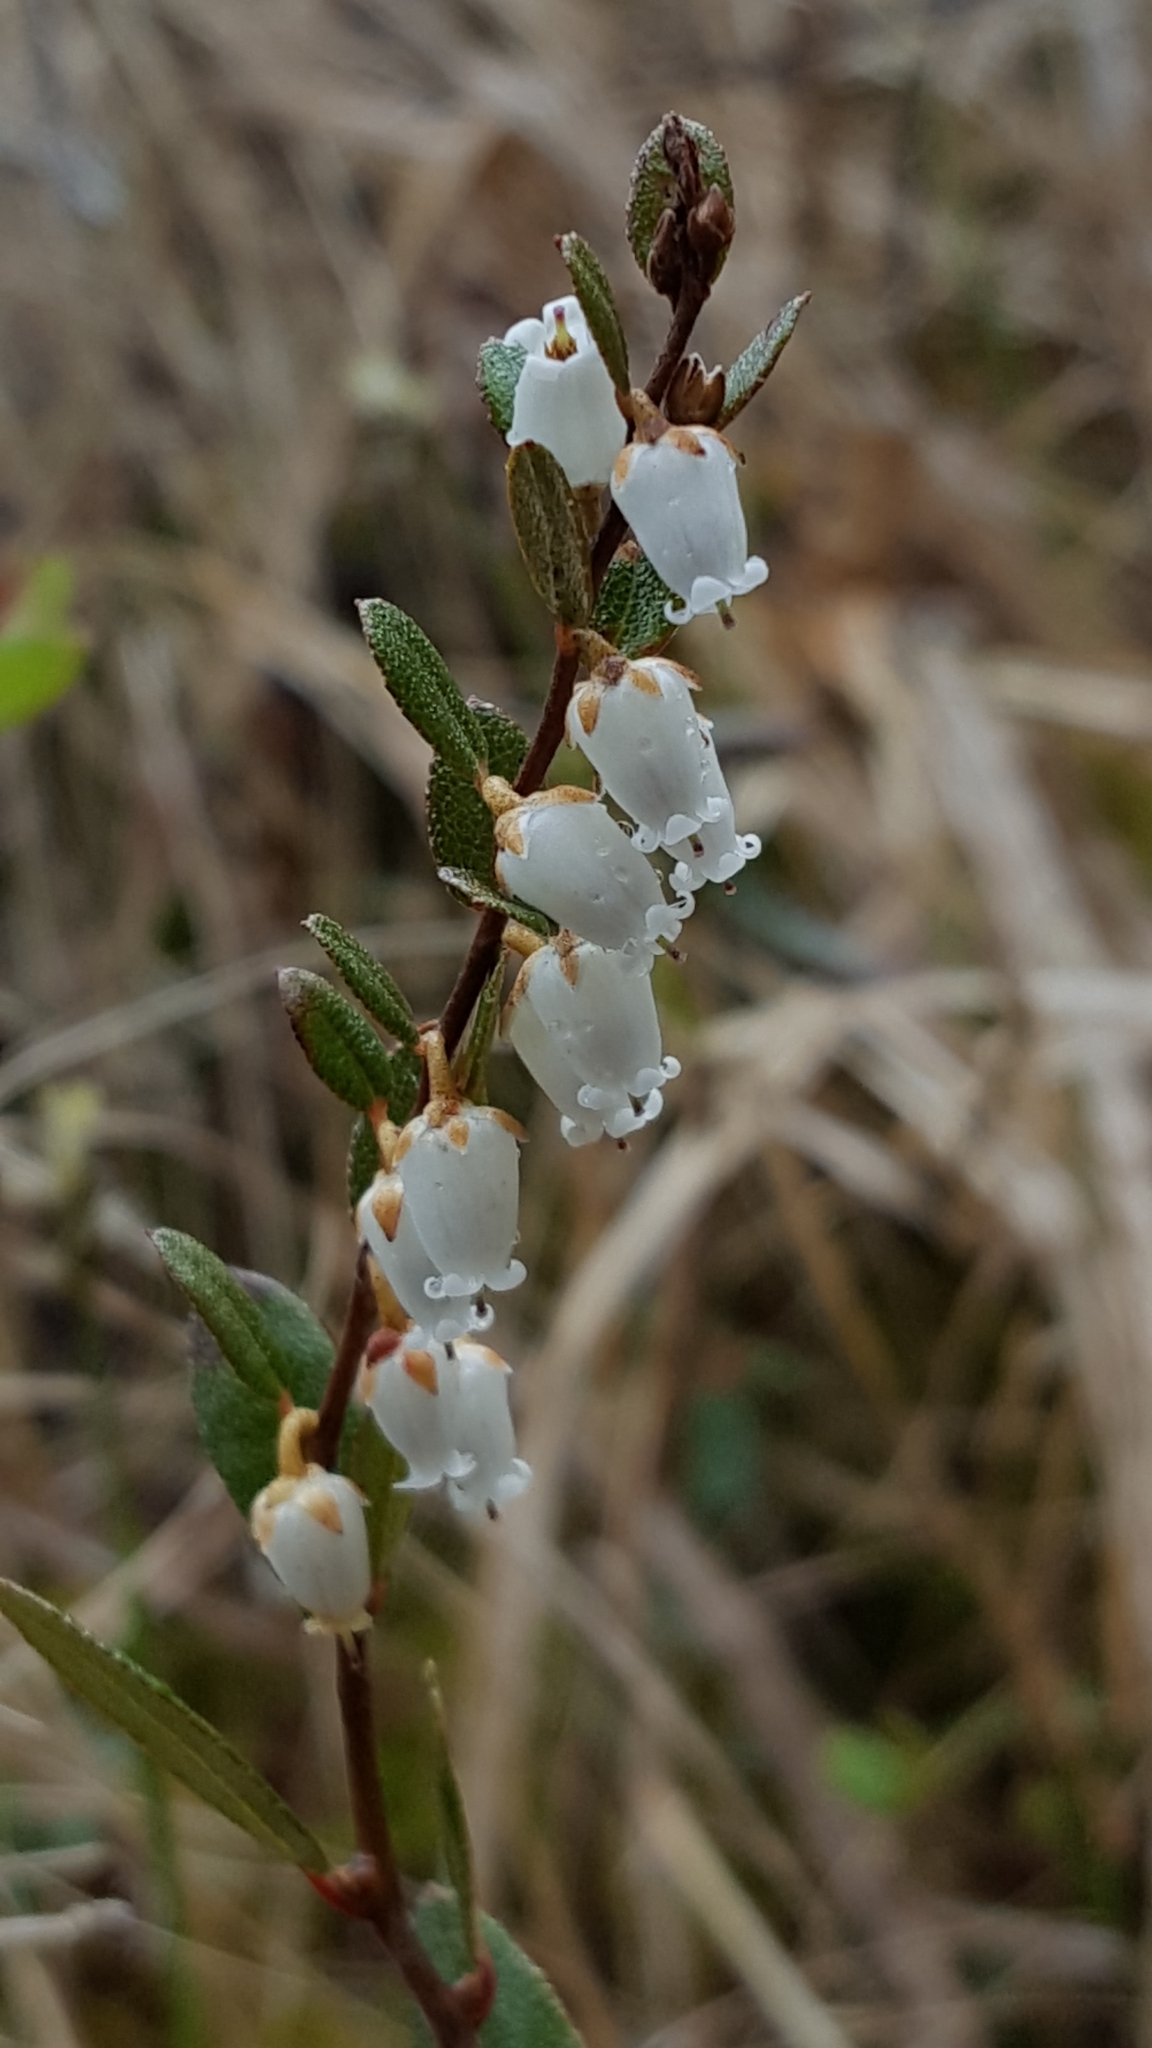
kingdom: Plantae
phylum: Tracheophyta
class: Magnoliopsida
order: Ericales
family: Ericaceae
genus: Chamaedaphne
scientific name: Chamaedaphne calyculata
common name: Leatherleaf
